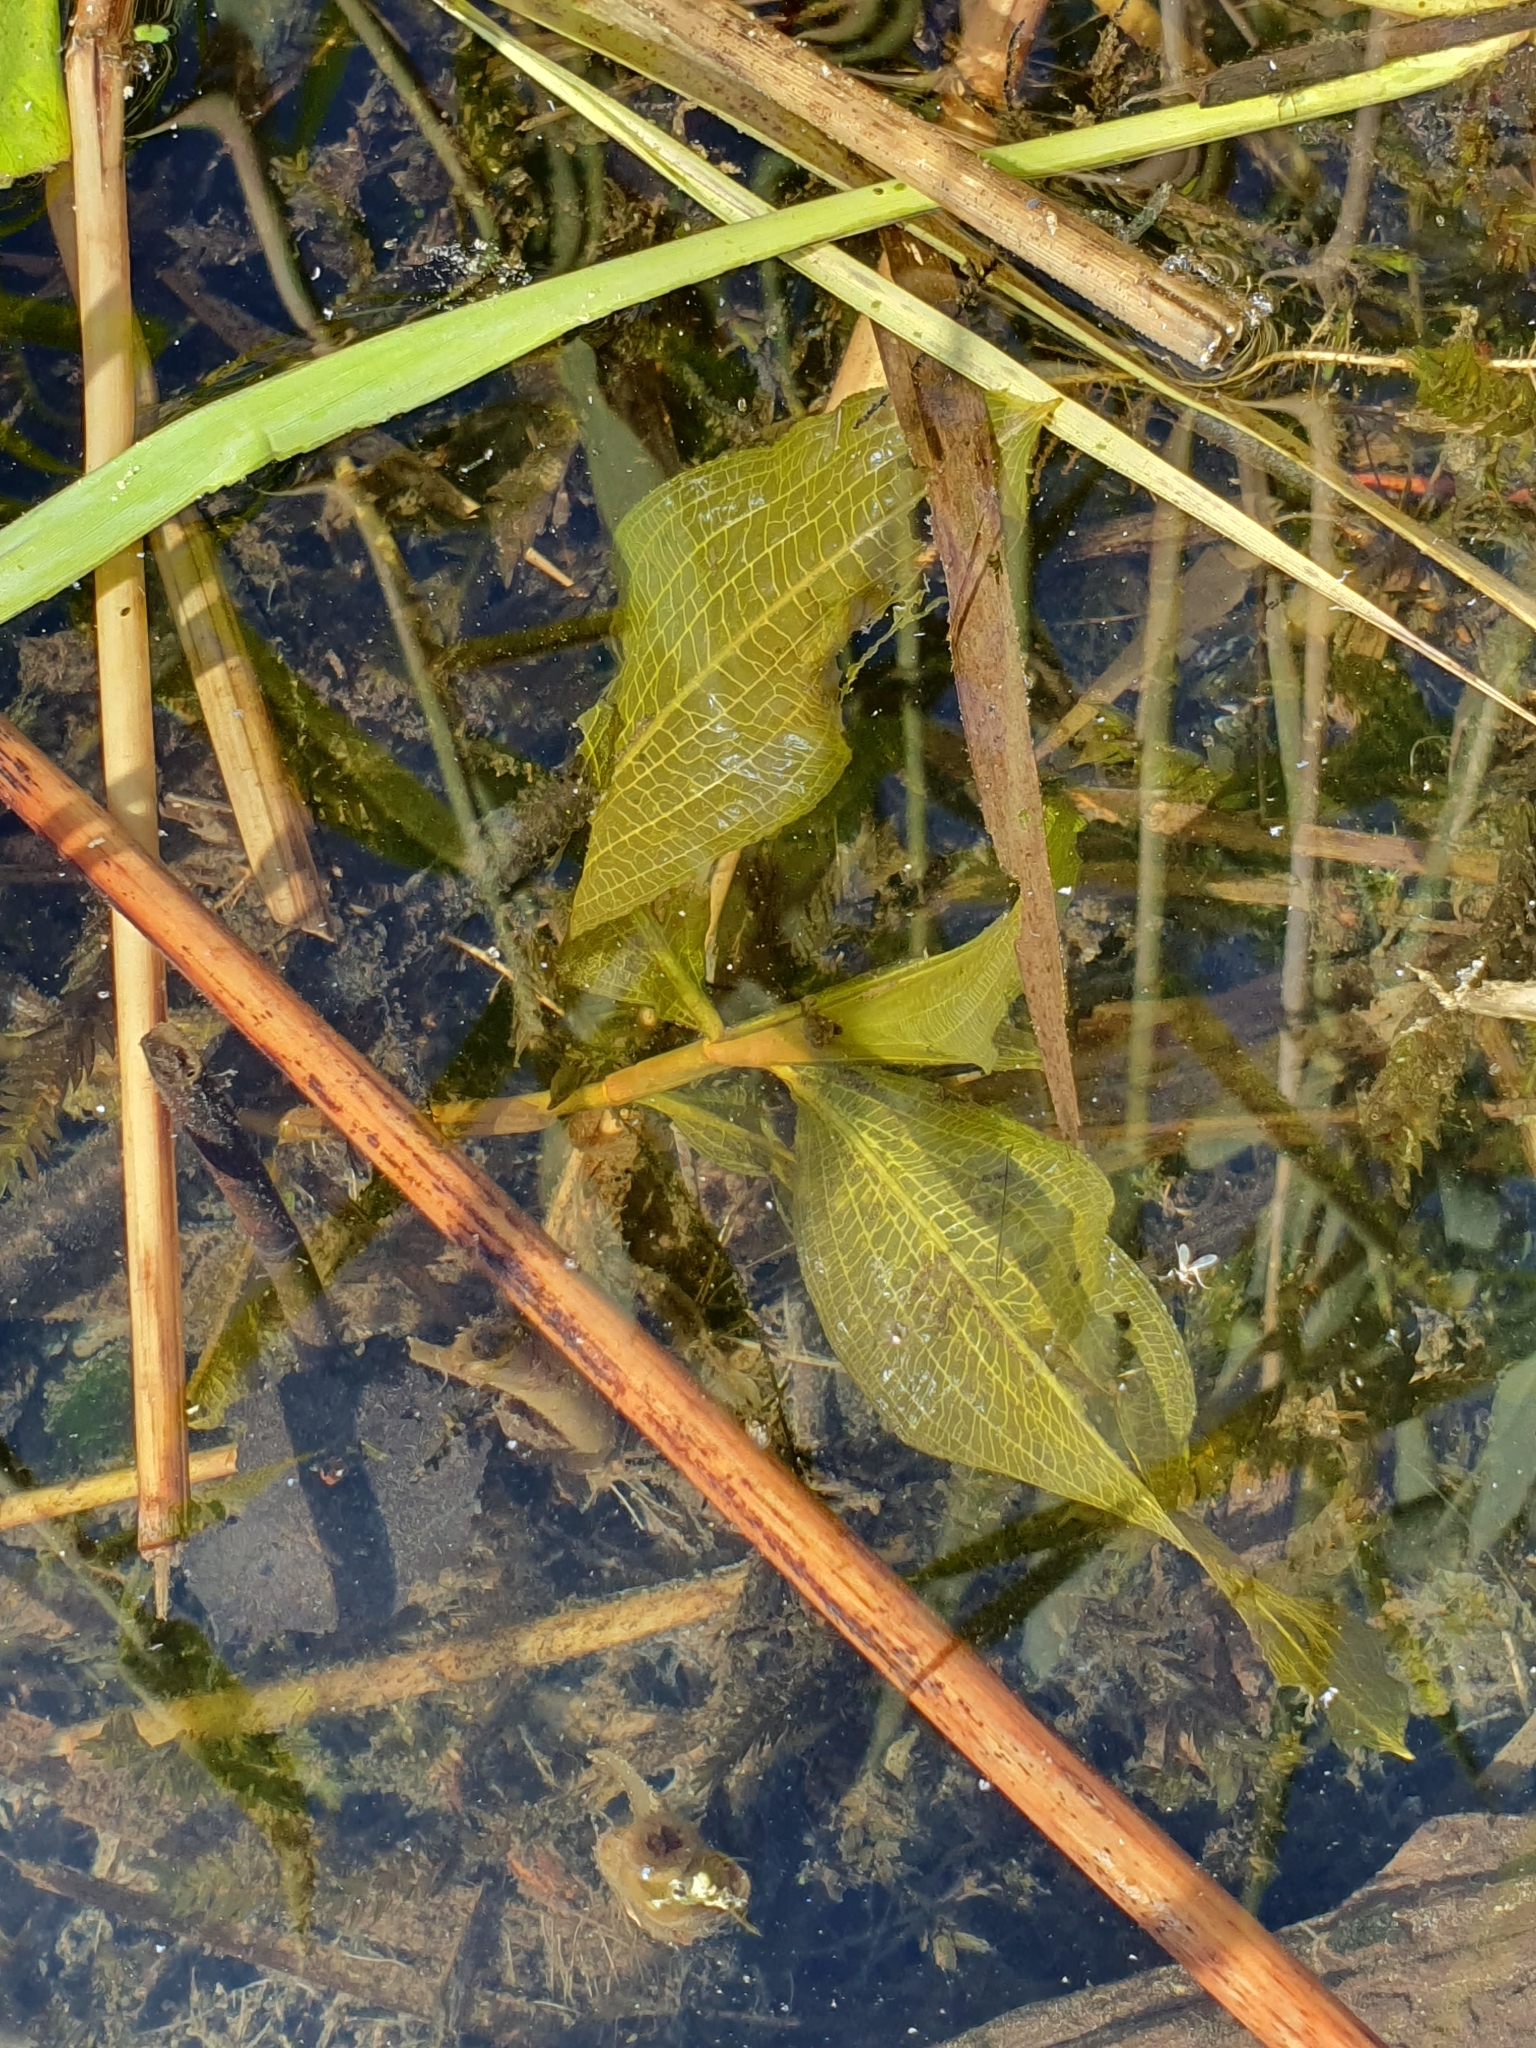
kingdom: Plantae
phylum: Tracheophyta
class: Liliopsida
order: Alismatales
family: Potamogetonaceae
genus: Potamogeton
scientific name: Potamogeton lucens
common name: Shining pondweed
